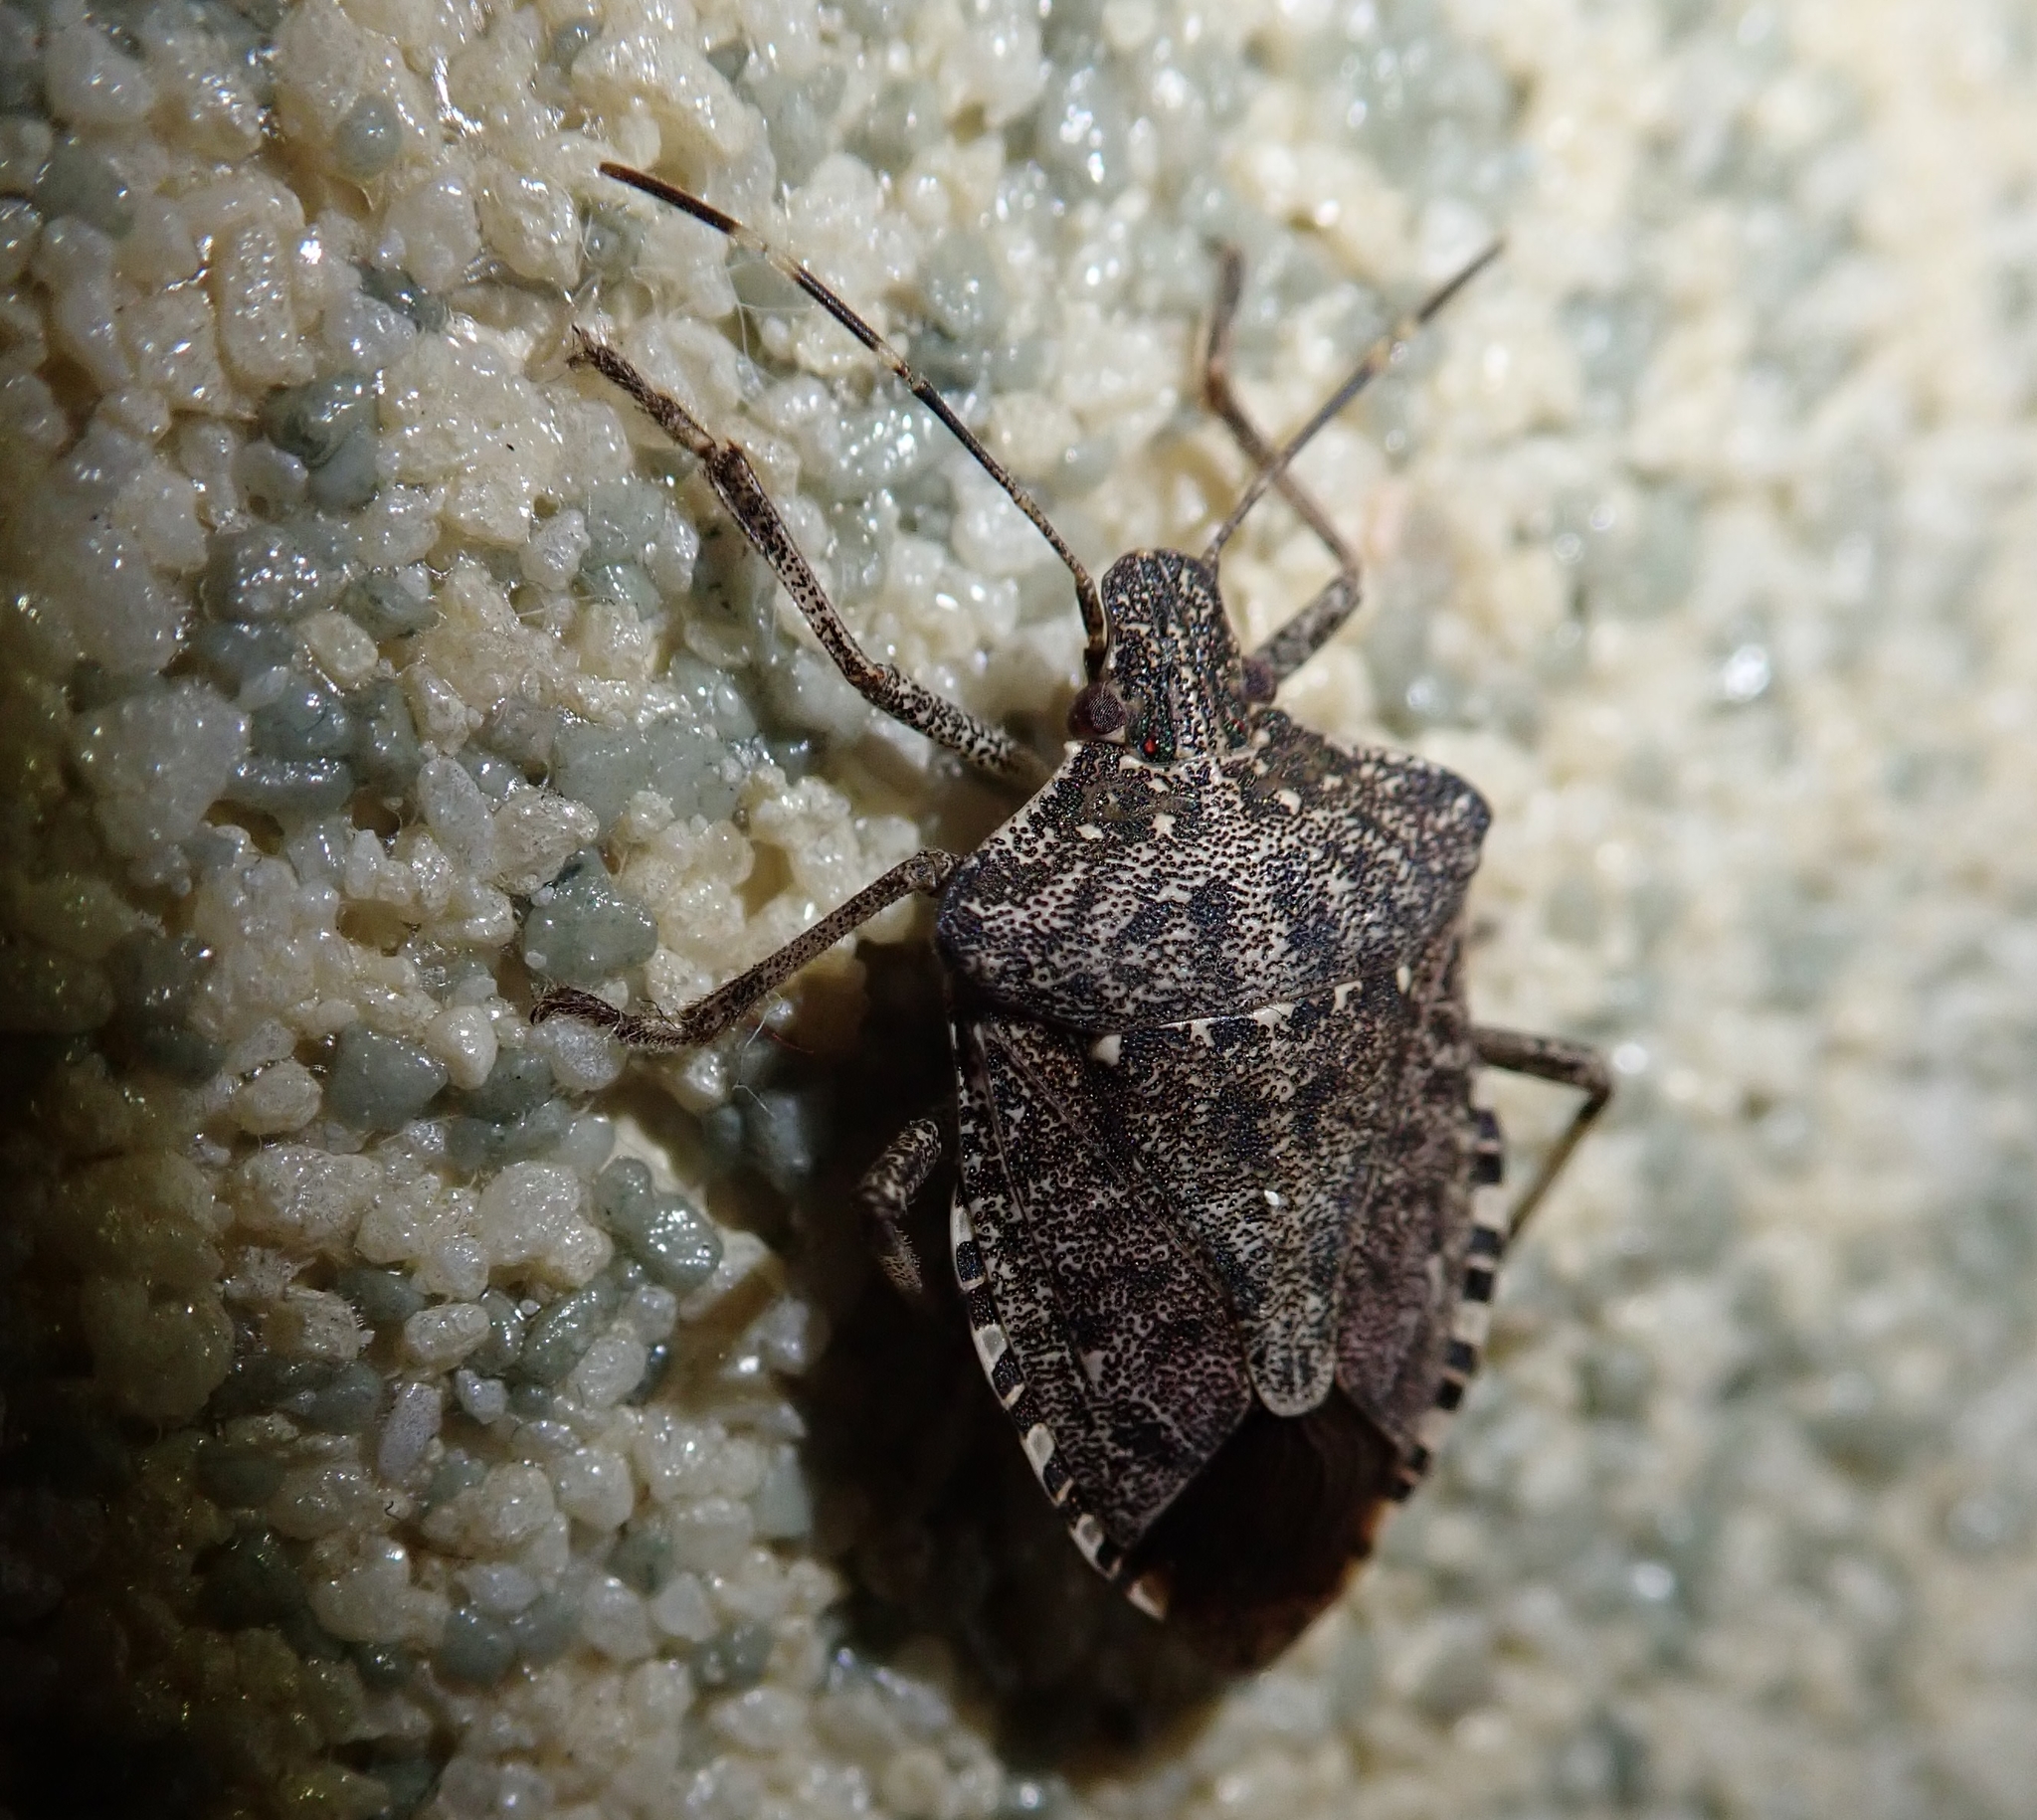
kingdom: Animalia
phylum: Arthropoda
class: Insecta
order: Hemiptera
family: Pentatomidae
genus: Halyomorpha
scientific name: Halyomorpha halys
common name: Brown marmorated stink bug
